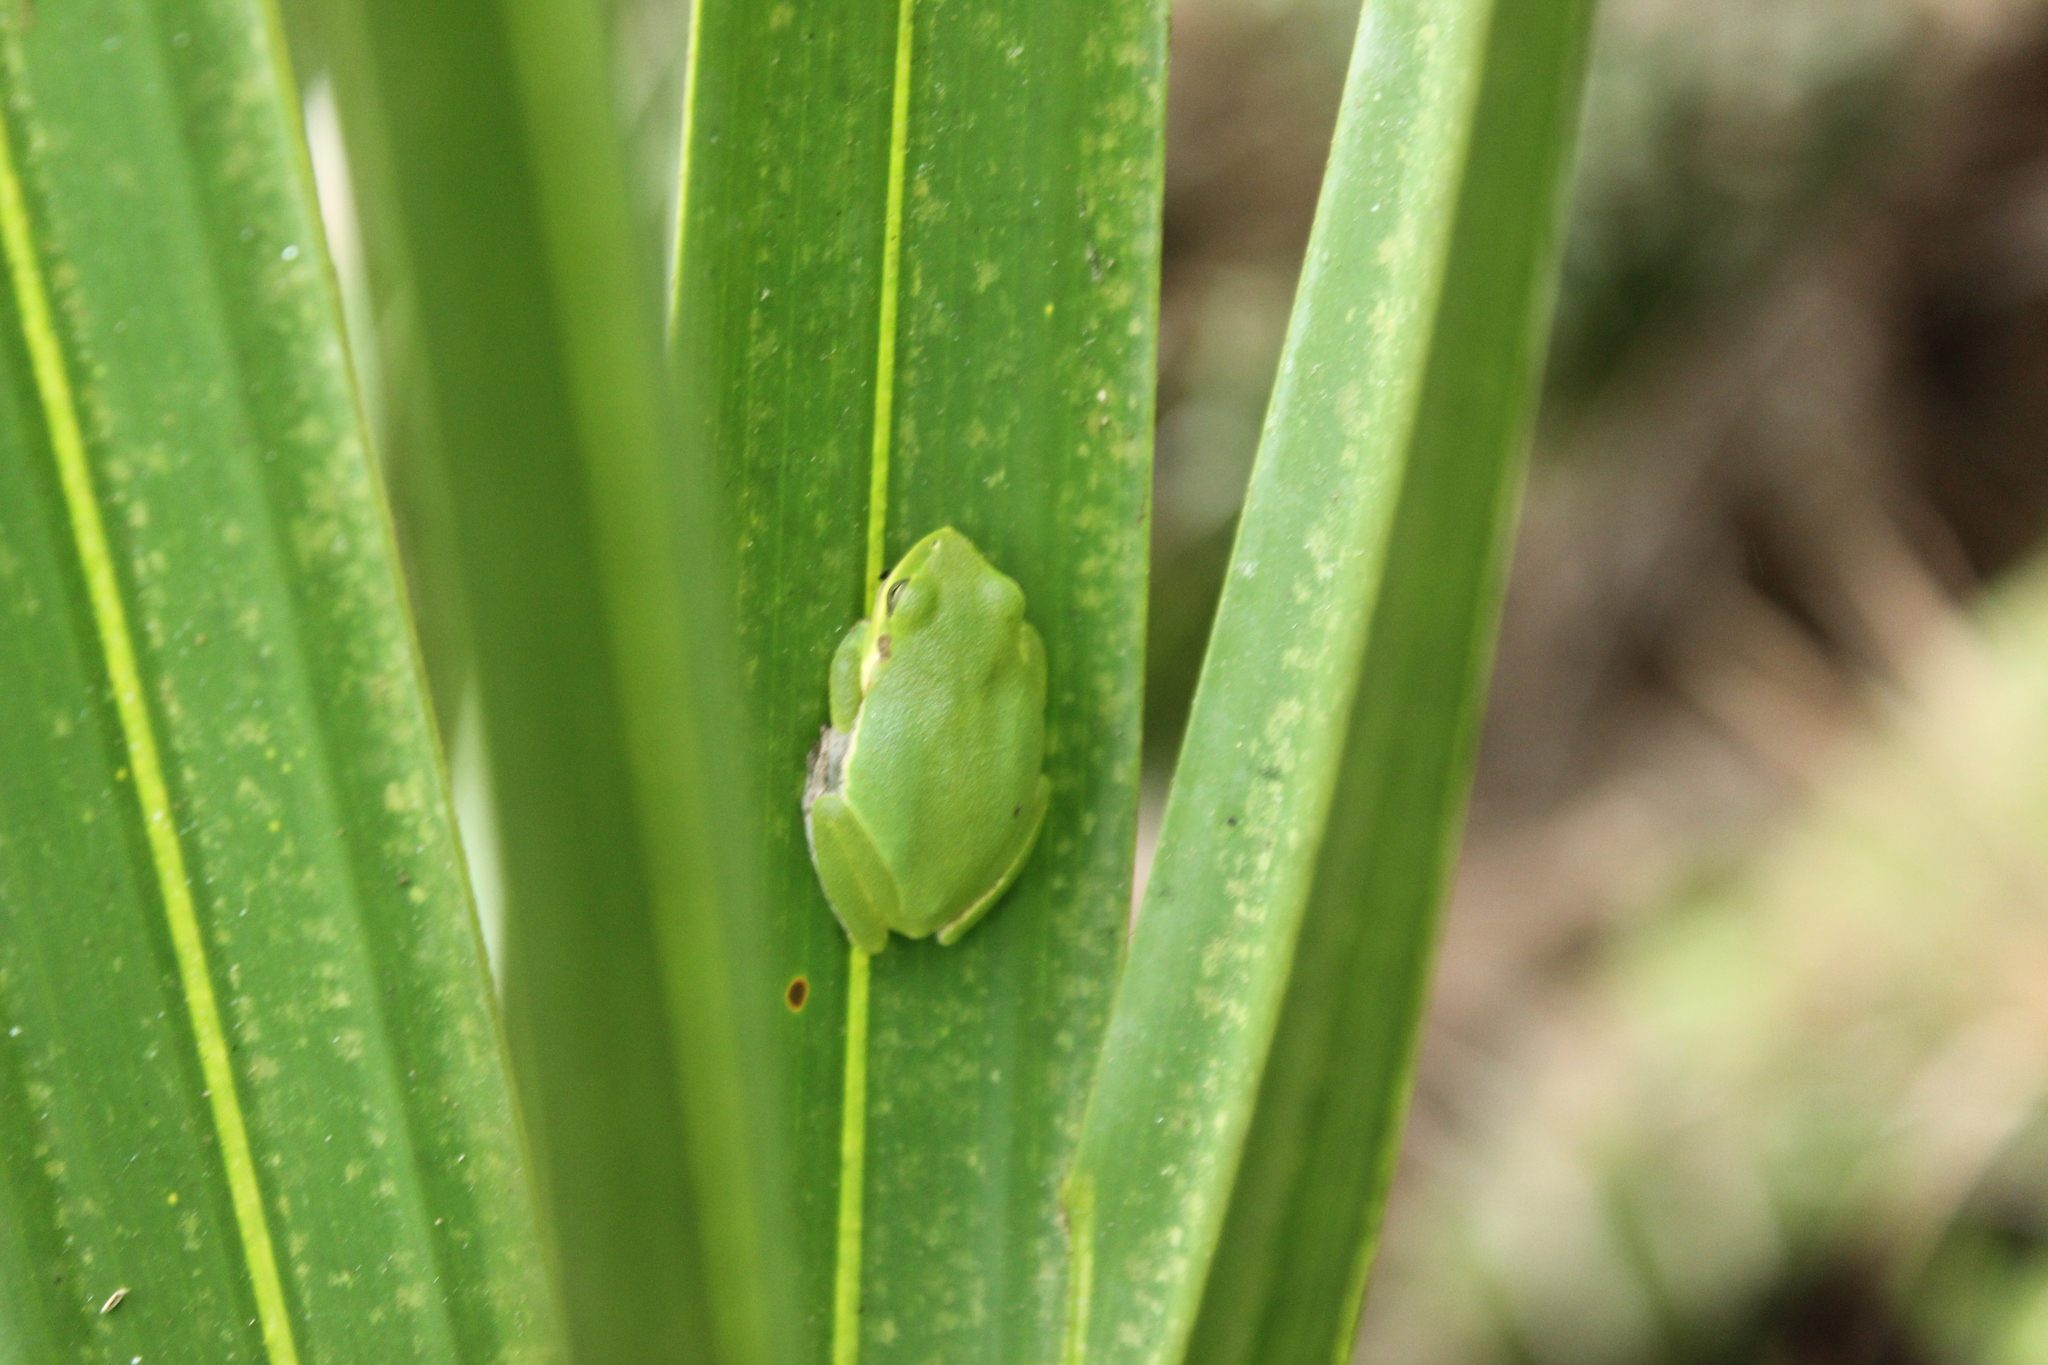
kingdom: Animalia
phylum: Chordata
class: Amphibia
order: Anura
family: Hylidae
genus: Dryophytes
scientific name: Dryophytes squirellus
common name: Squirrel treefrog
